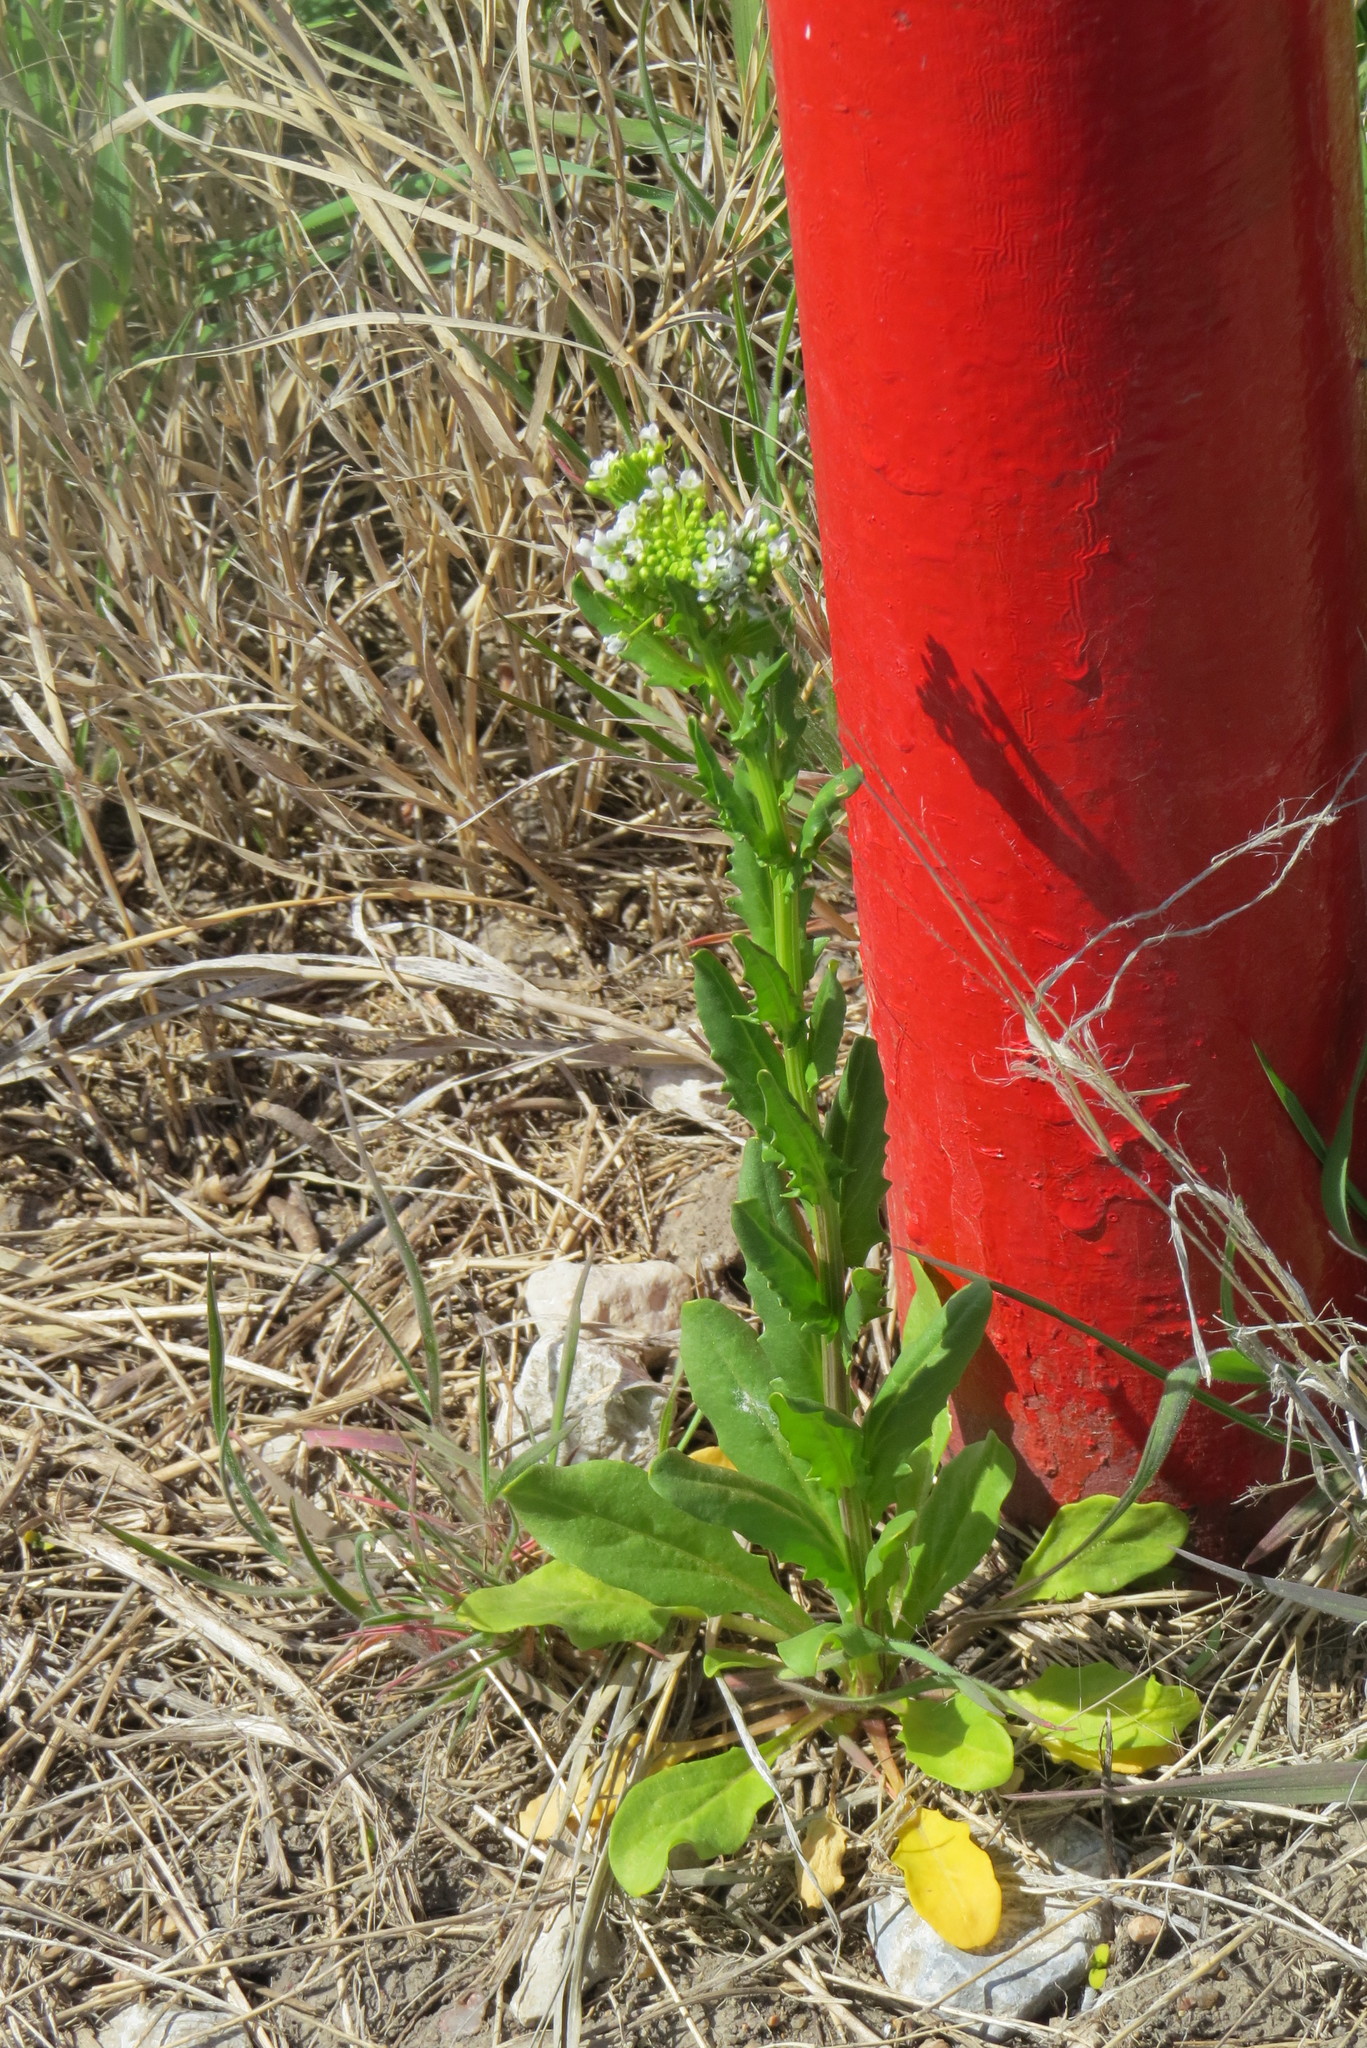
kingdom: Plantae
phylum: Tracheophyta
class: Magnoliopsida
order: Brassicales
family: Brassicaceae
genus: Thlaspi
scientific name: Thlaspi arvense
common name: Field pennycress
